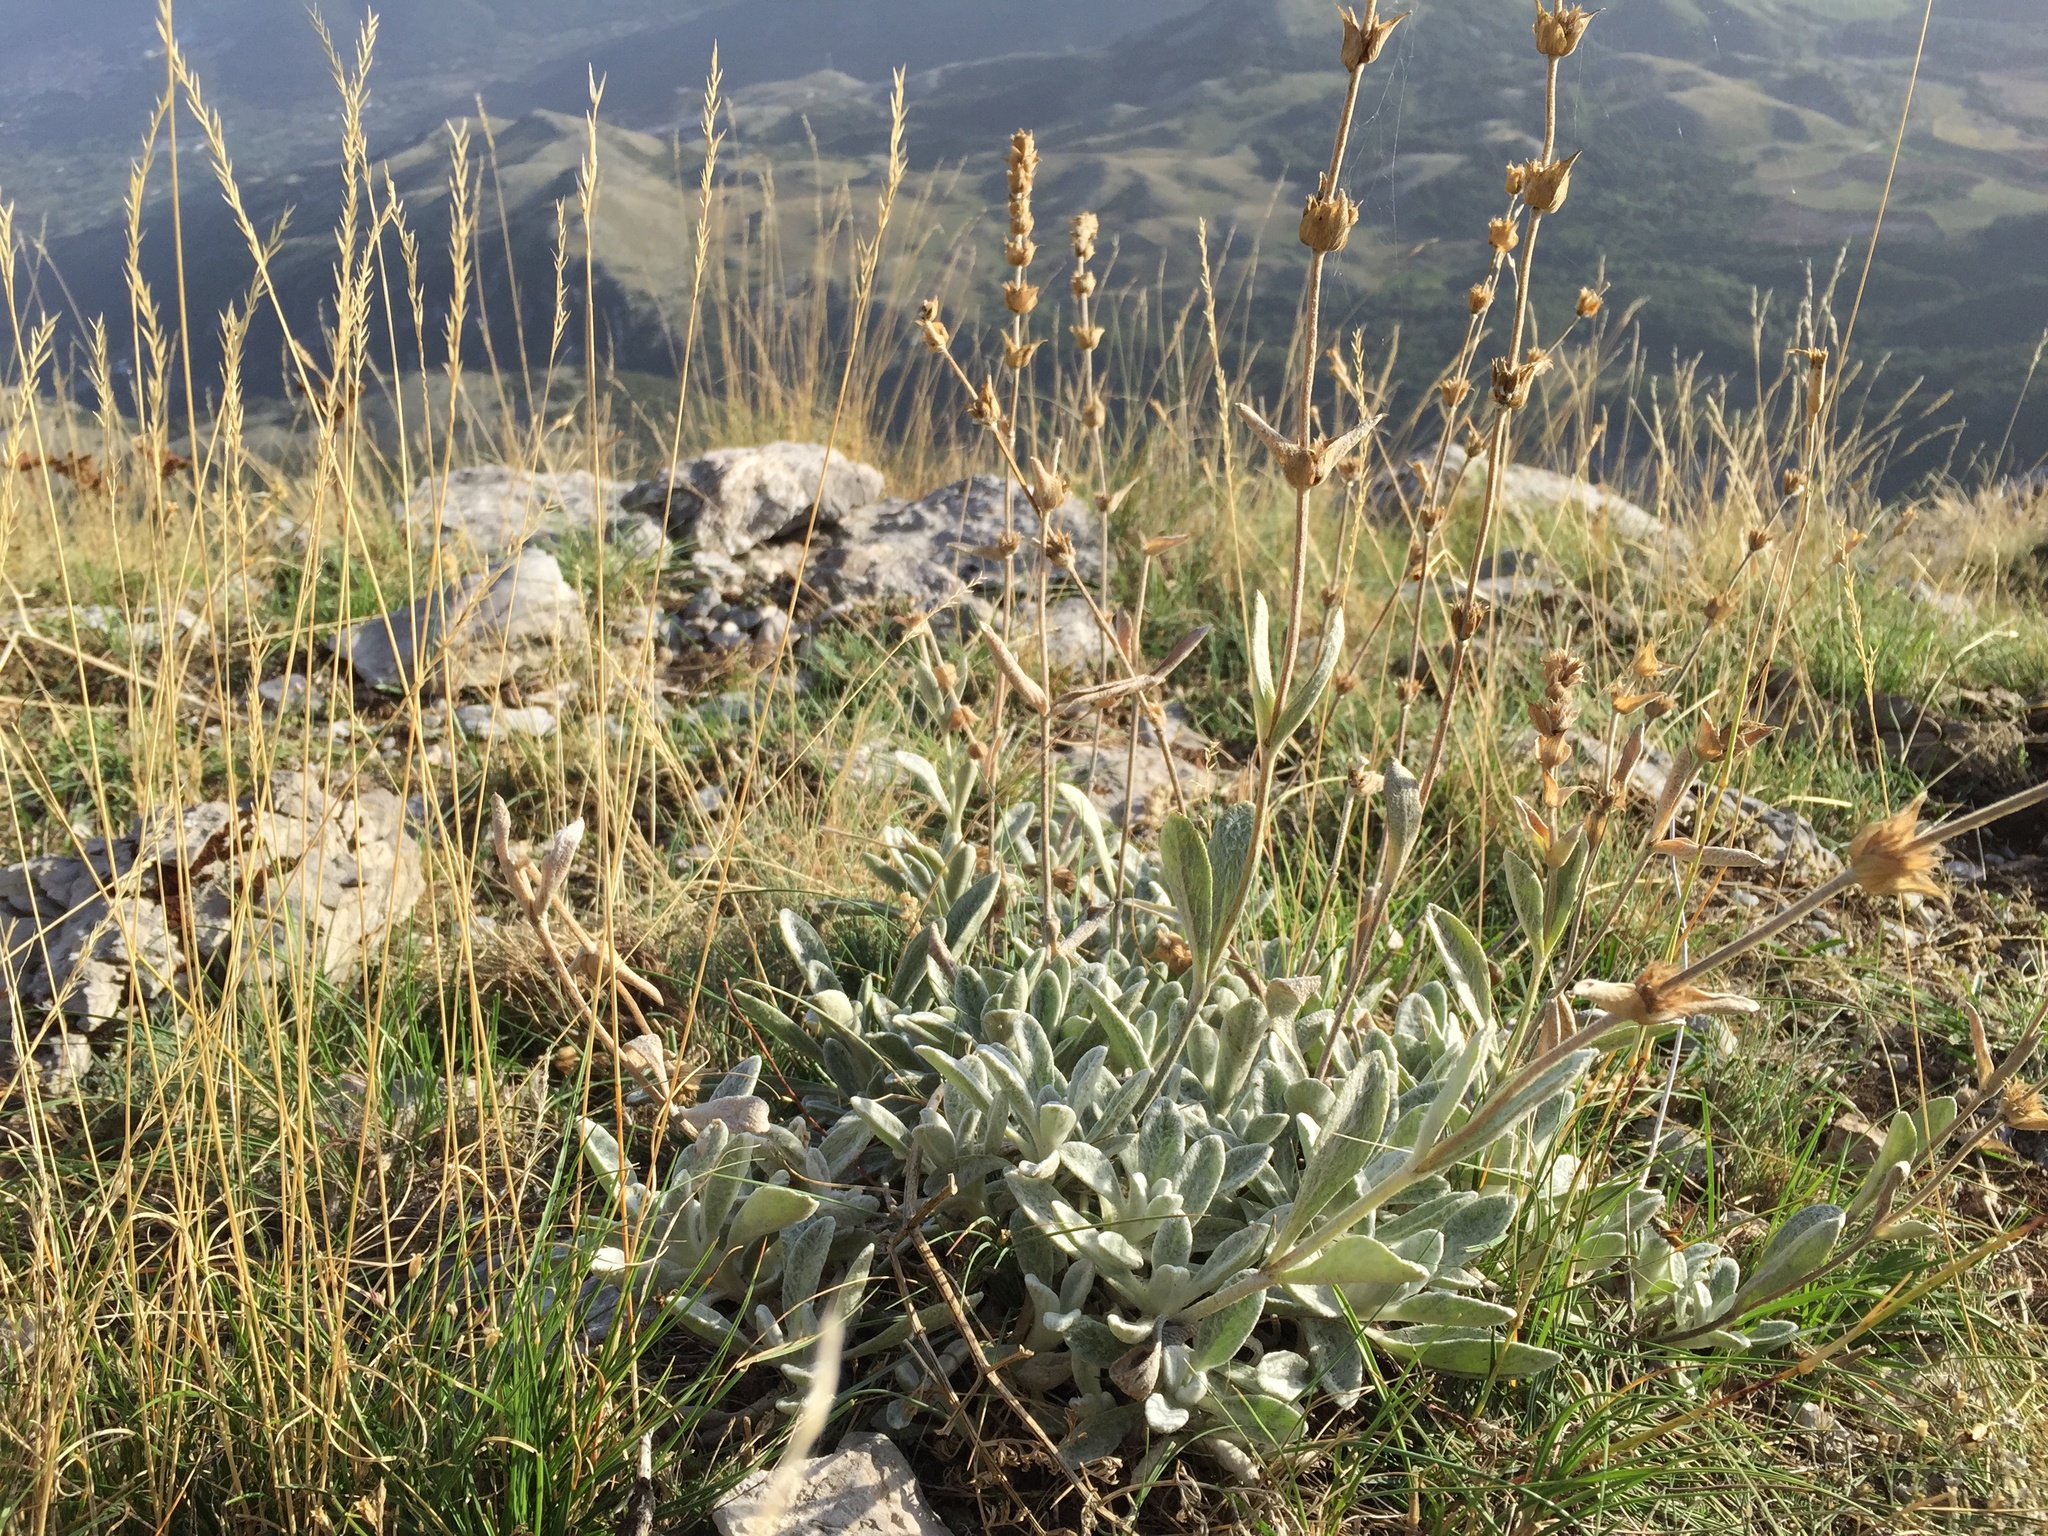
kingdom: Plantae
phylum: Tracheophyta
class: Magnoliopsida
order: Lamiales
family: Lamiaceae
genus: Sideritis
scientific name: Sideritis italica
